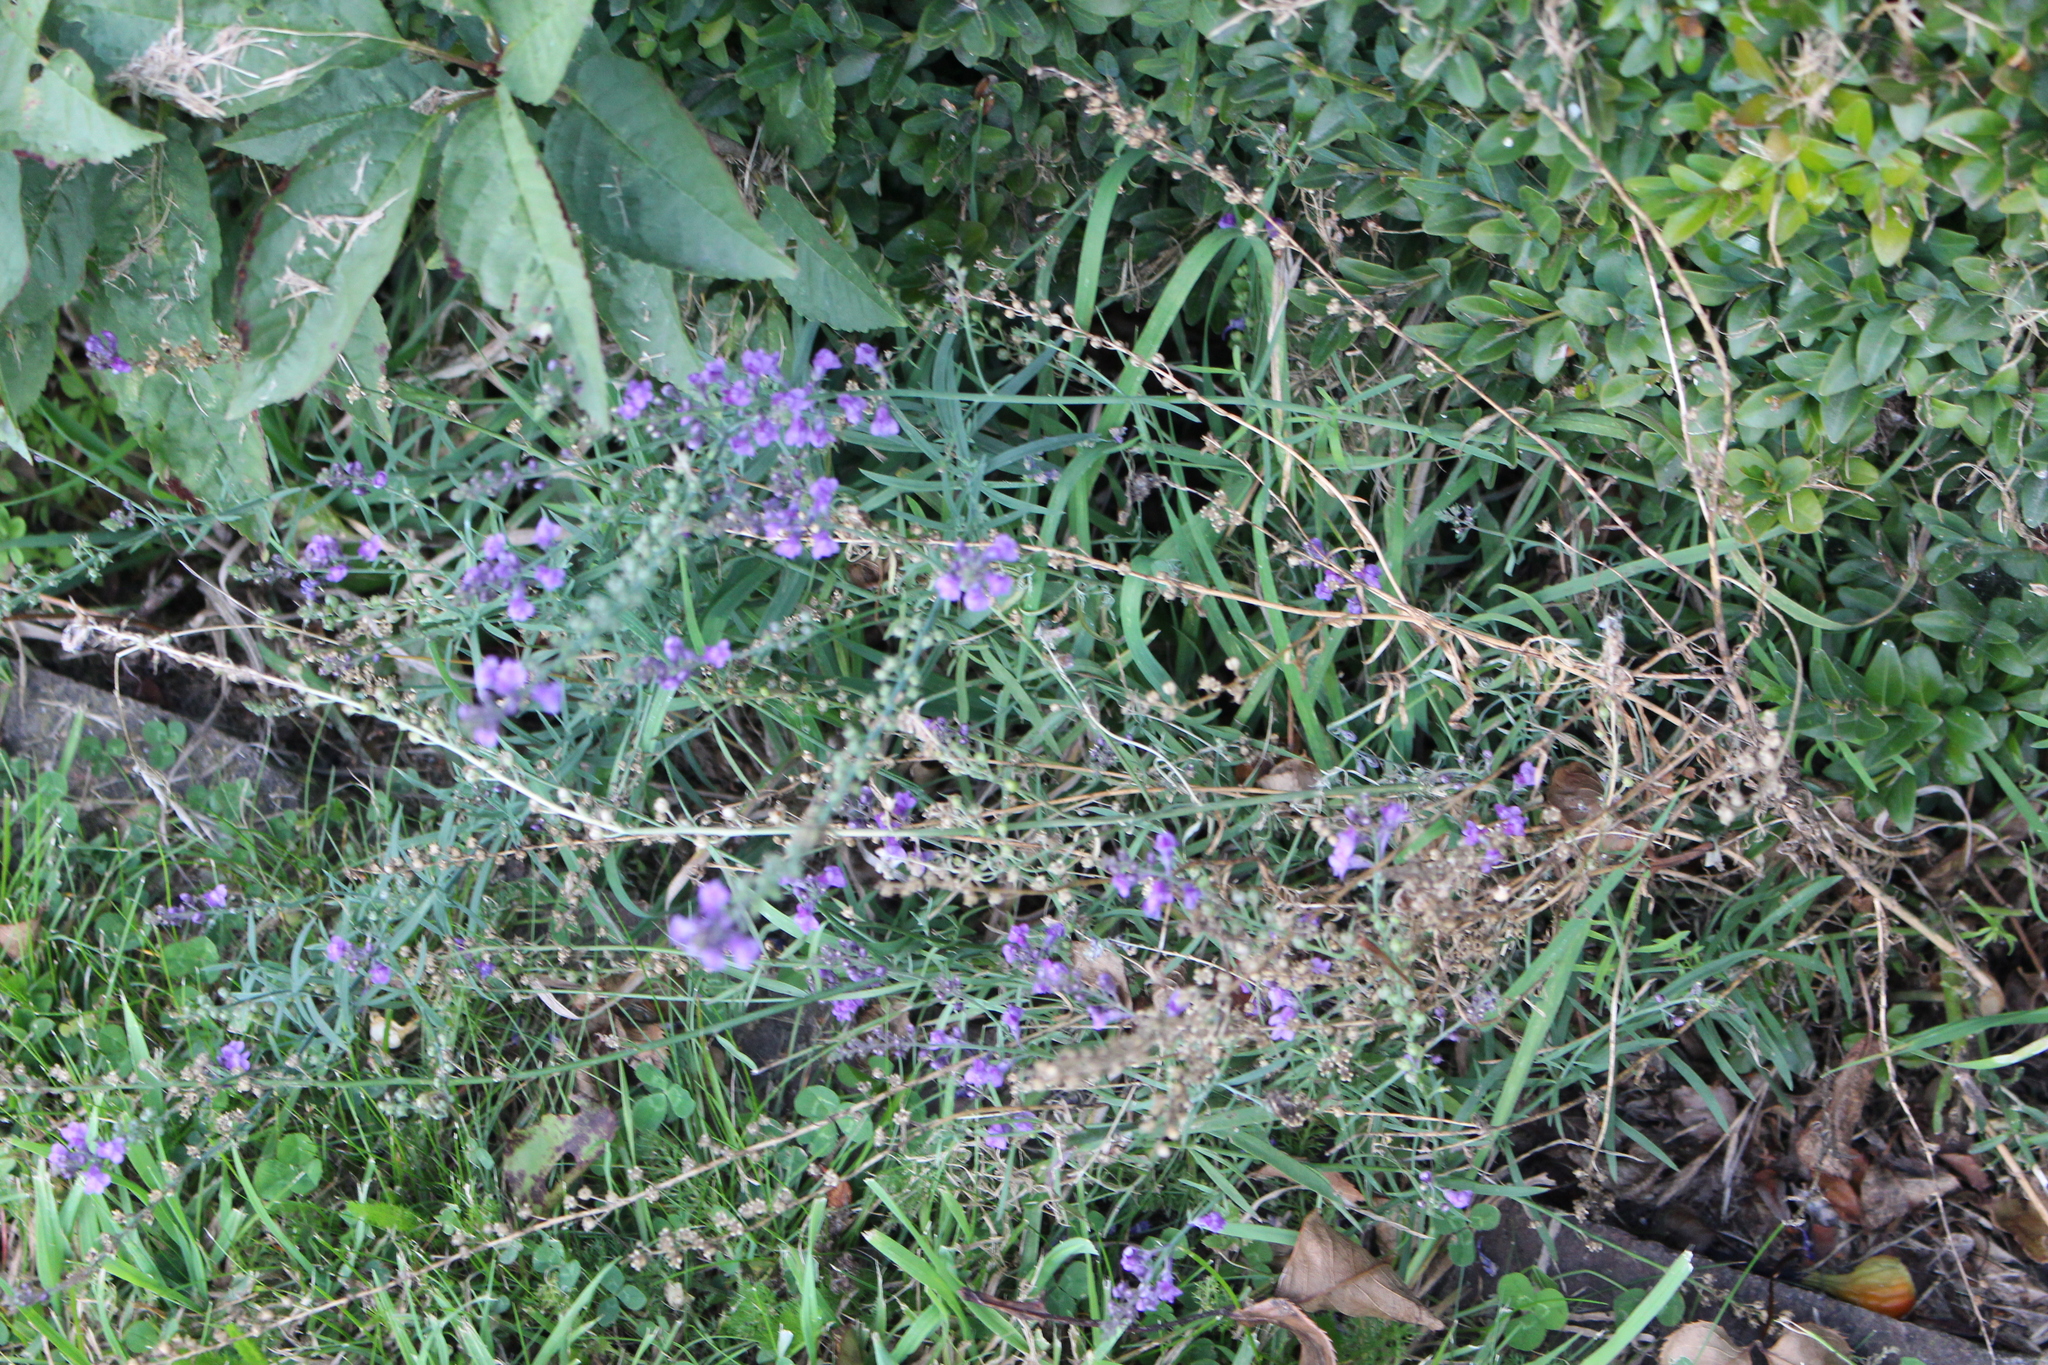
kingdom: Plantae
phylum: Tracheophyta
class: Magnoliopsida
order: Lamiales
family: Plantaginaceae
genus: Linaria
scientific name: Linaria purpurea
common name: Purple toadflax
